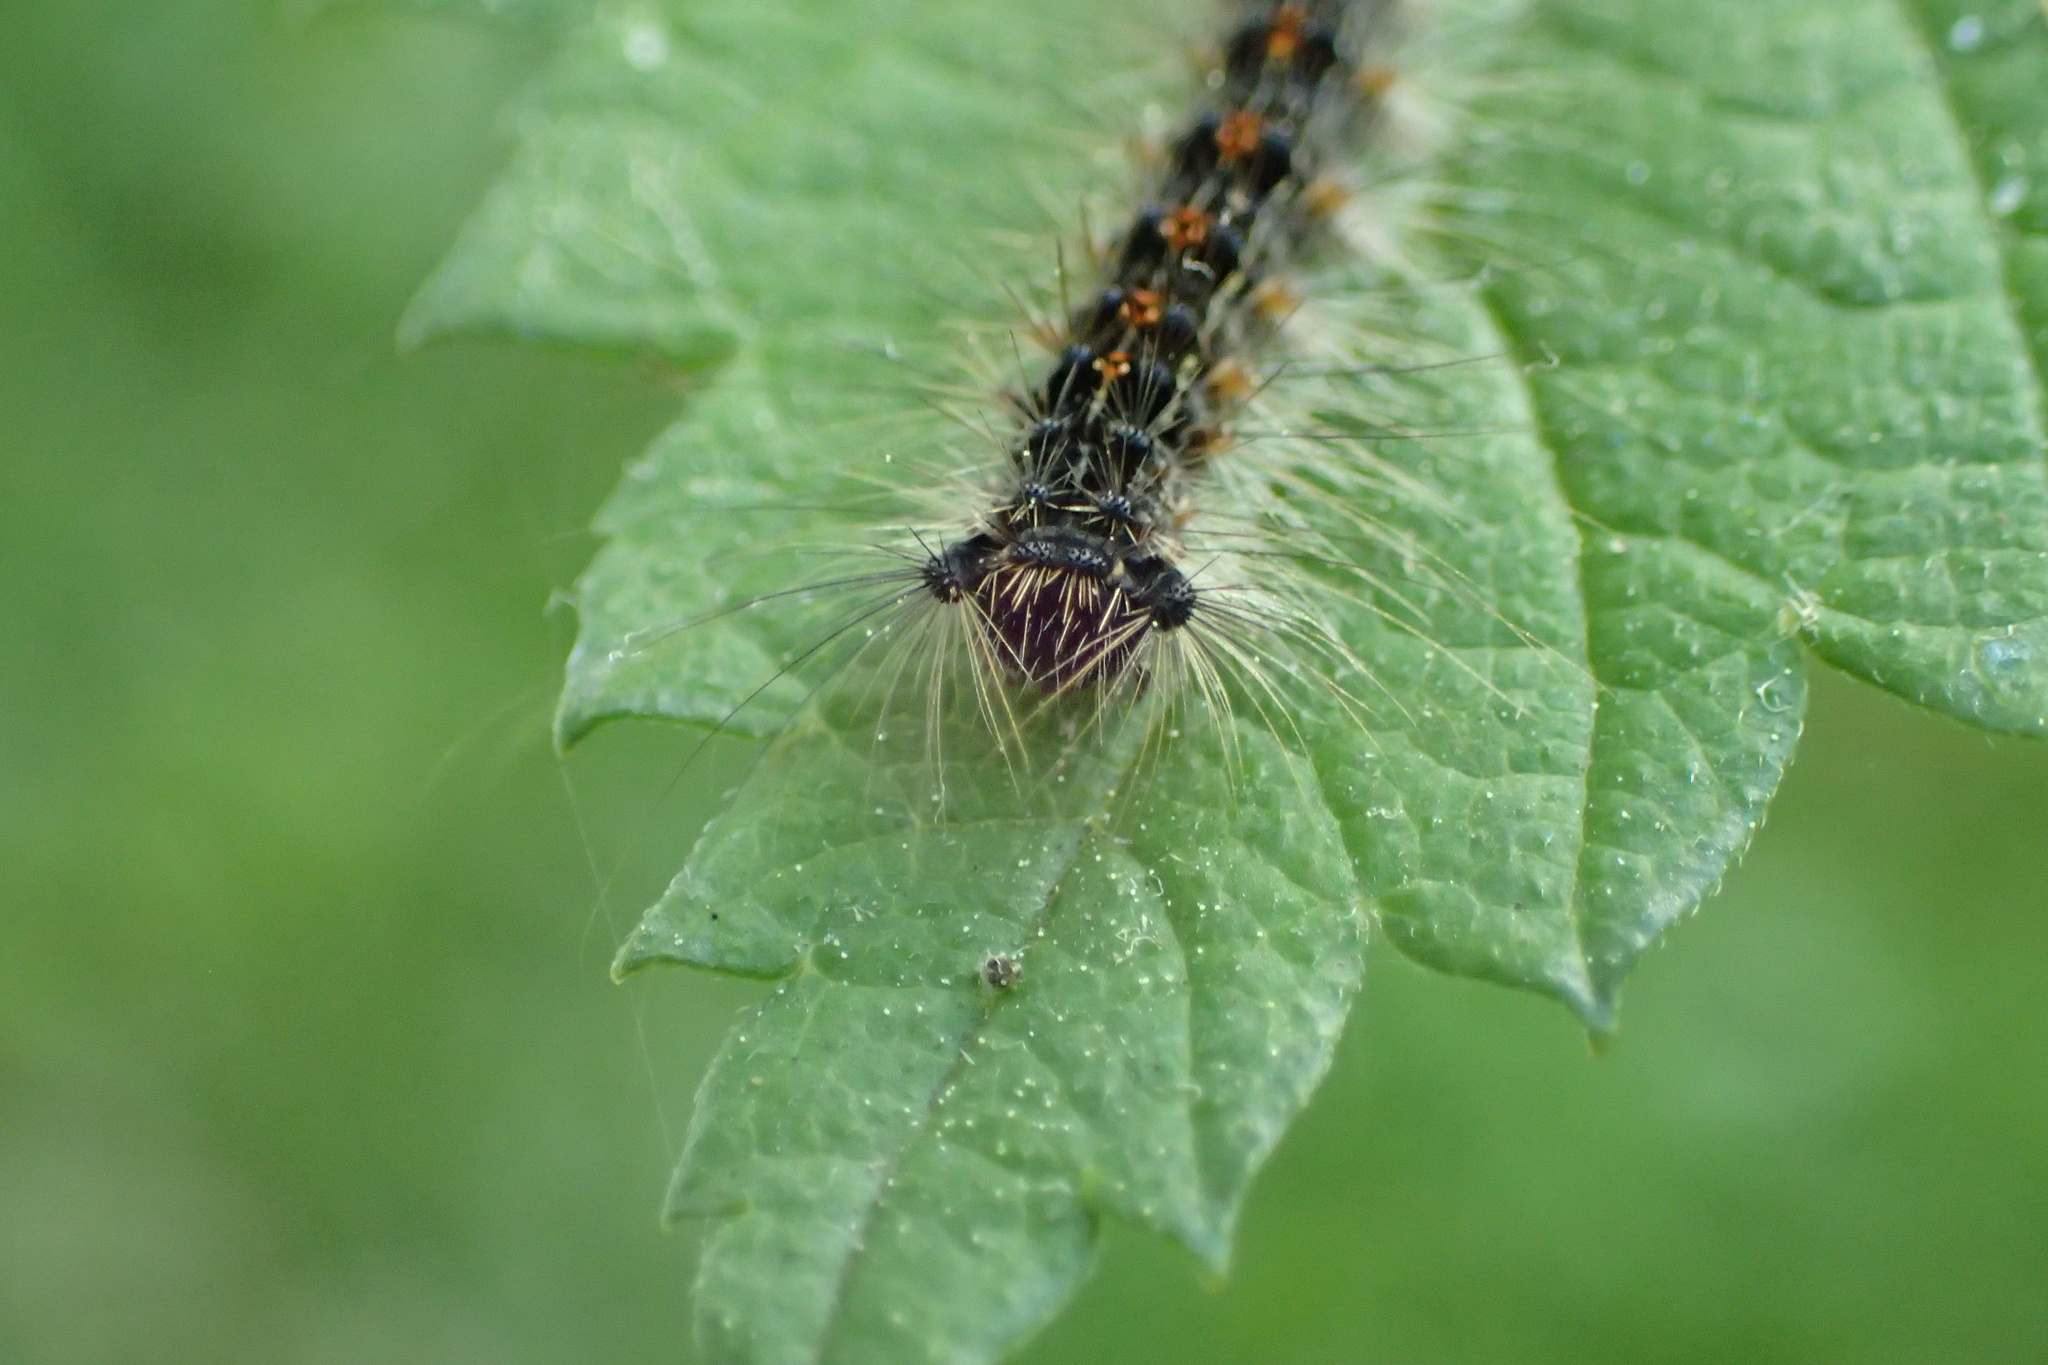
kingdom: Animalia
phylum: Arthropoda
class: Insecta
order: Lepidoptera
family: Erebidae
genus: Lymantria
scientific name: Lymantria dispar
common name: Gypsy moth
